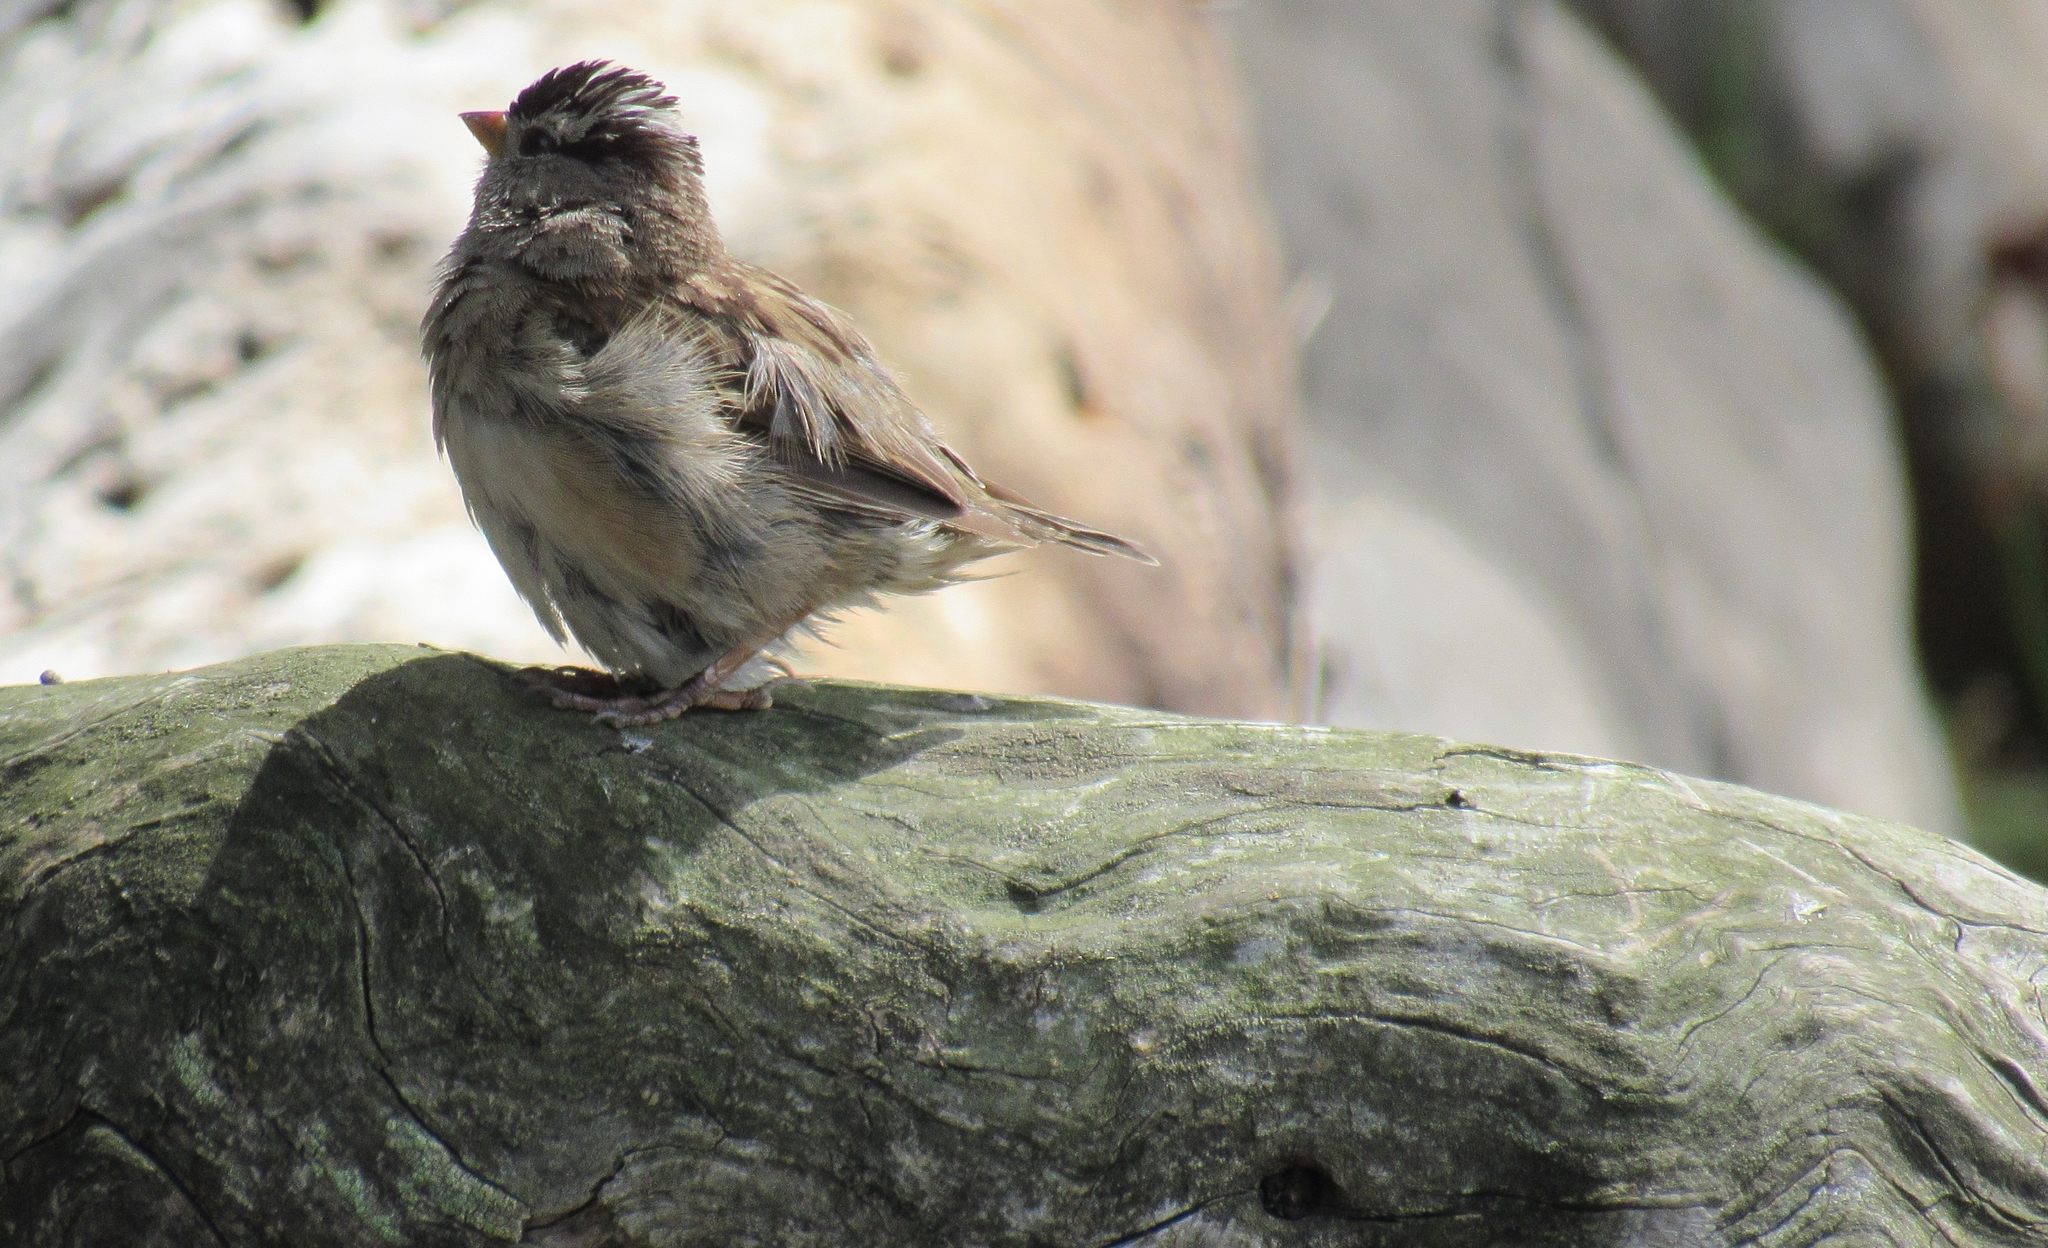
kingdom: Animalia
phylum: Chordata
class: Aves
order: Passeriformes
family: Passerellidae
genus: Zonotrichia
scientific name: Zonotrichia leucophrys
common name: White-crowned sparrow
